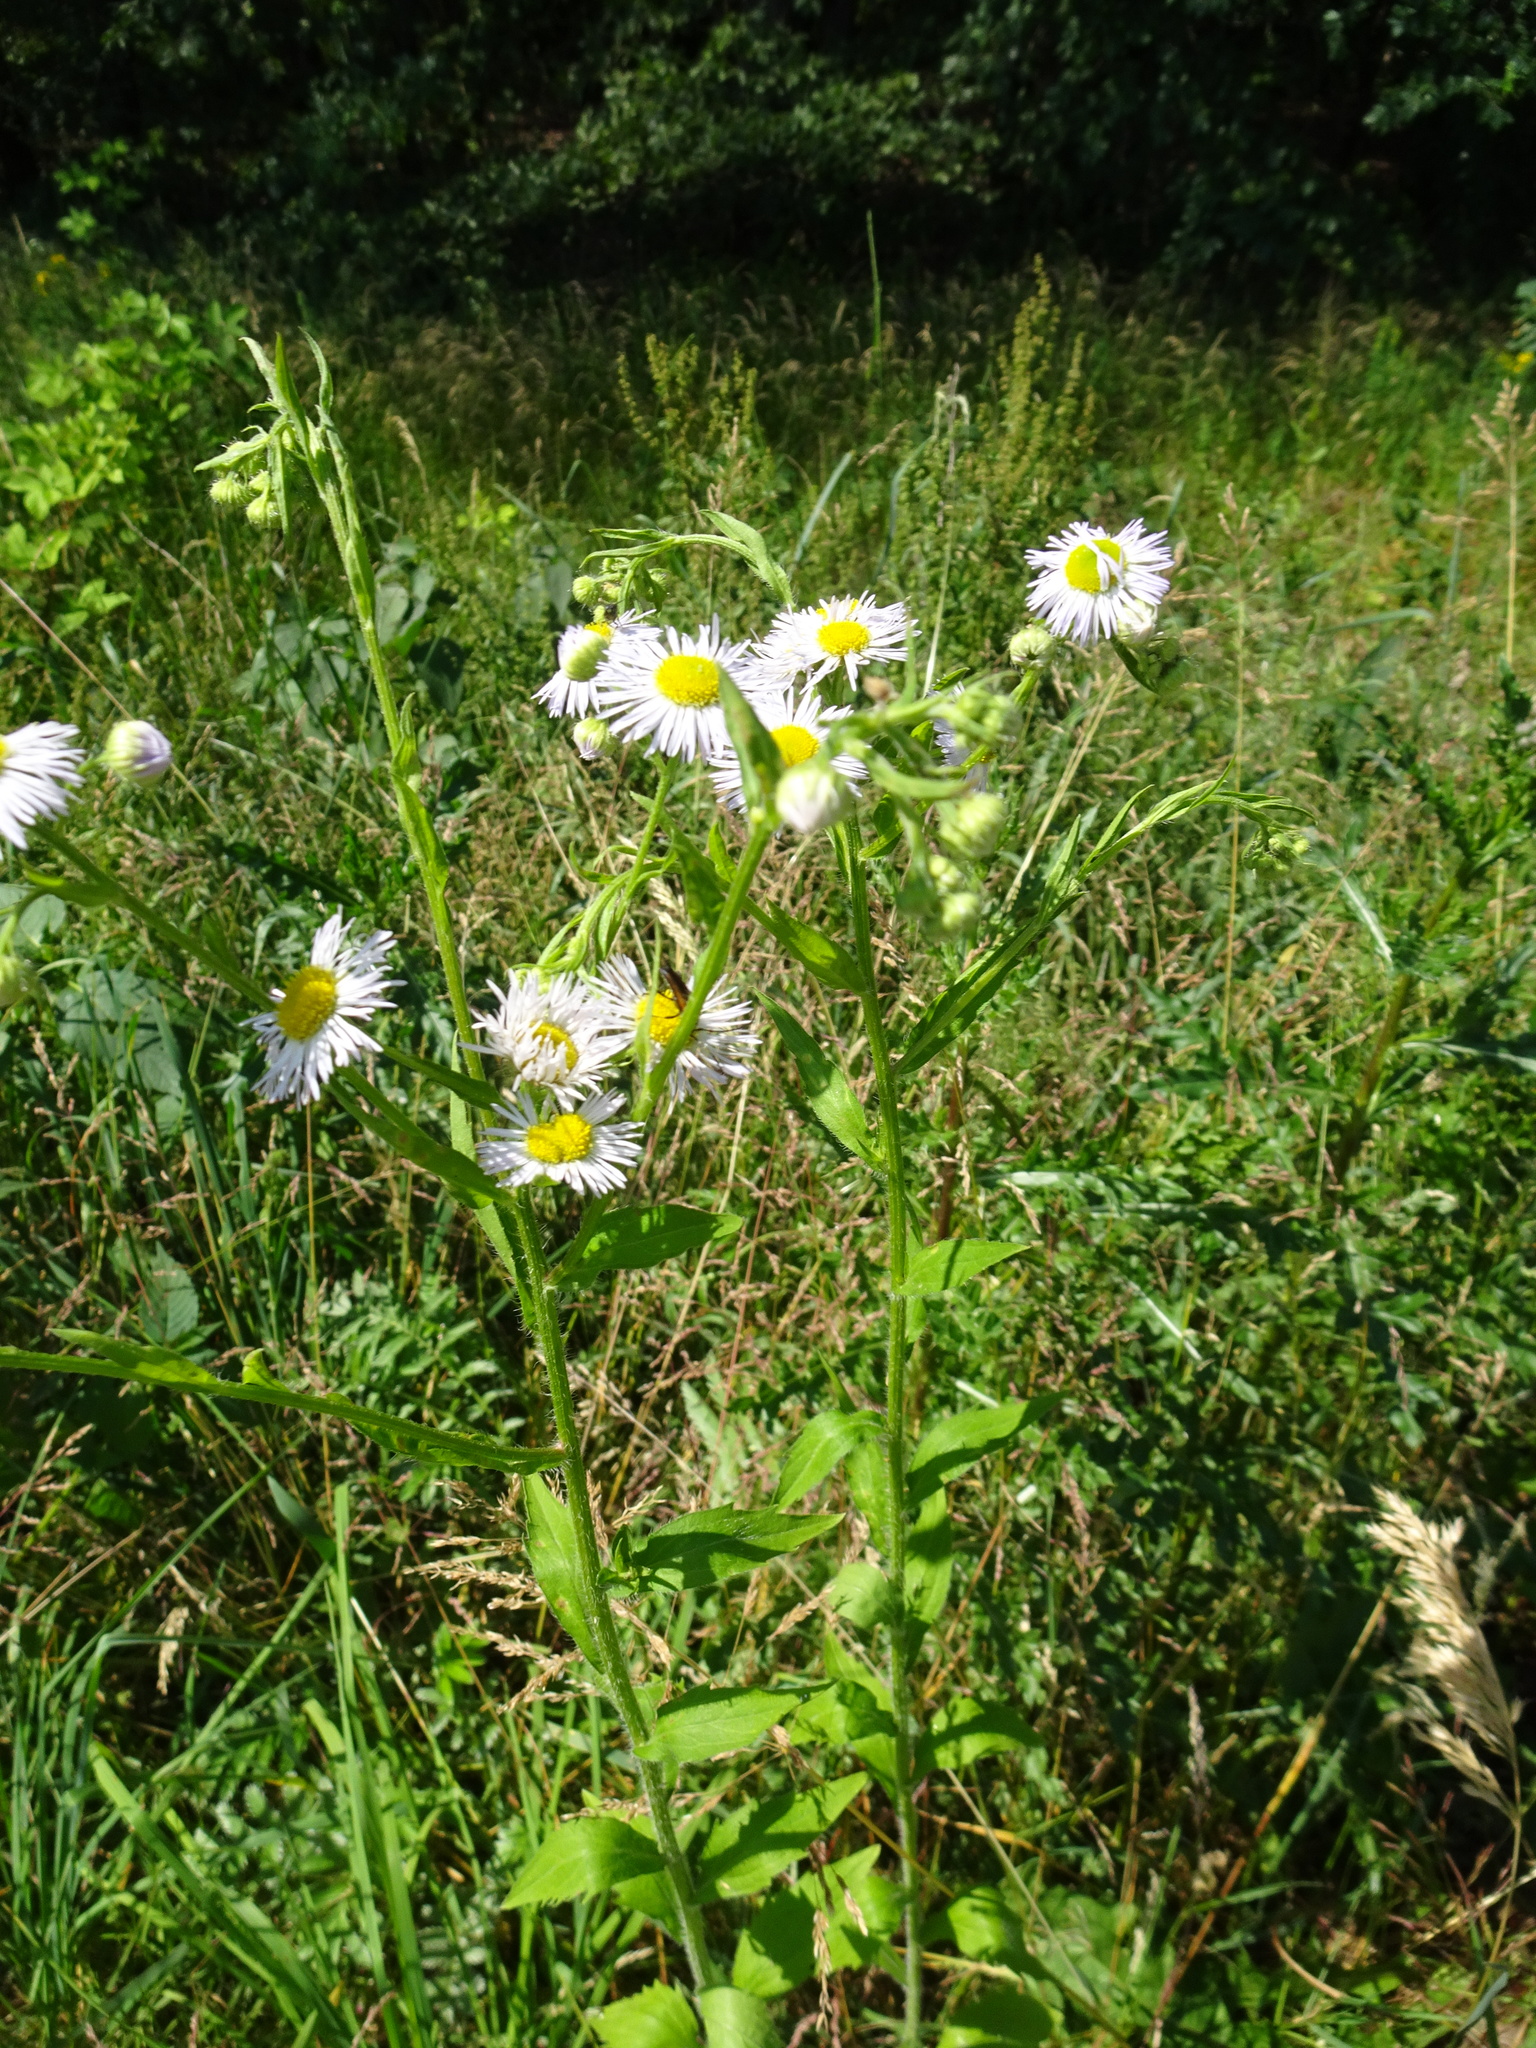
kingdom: Plantae
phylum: Tracheophyta
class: Magnoliopsida
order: Asterales
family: Asteraceae
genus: Erigeron
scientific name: Erigeron annuus
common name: Tall fleabane
